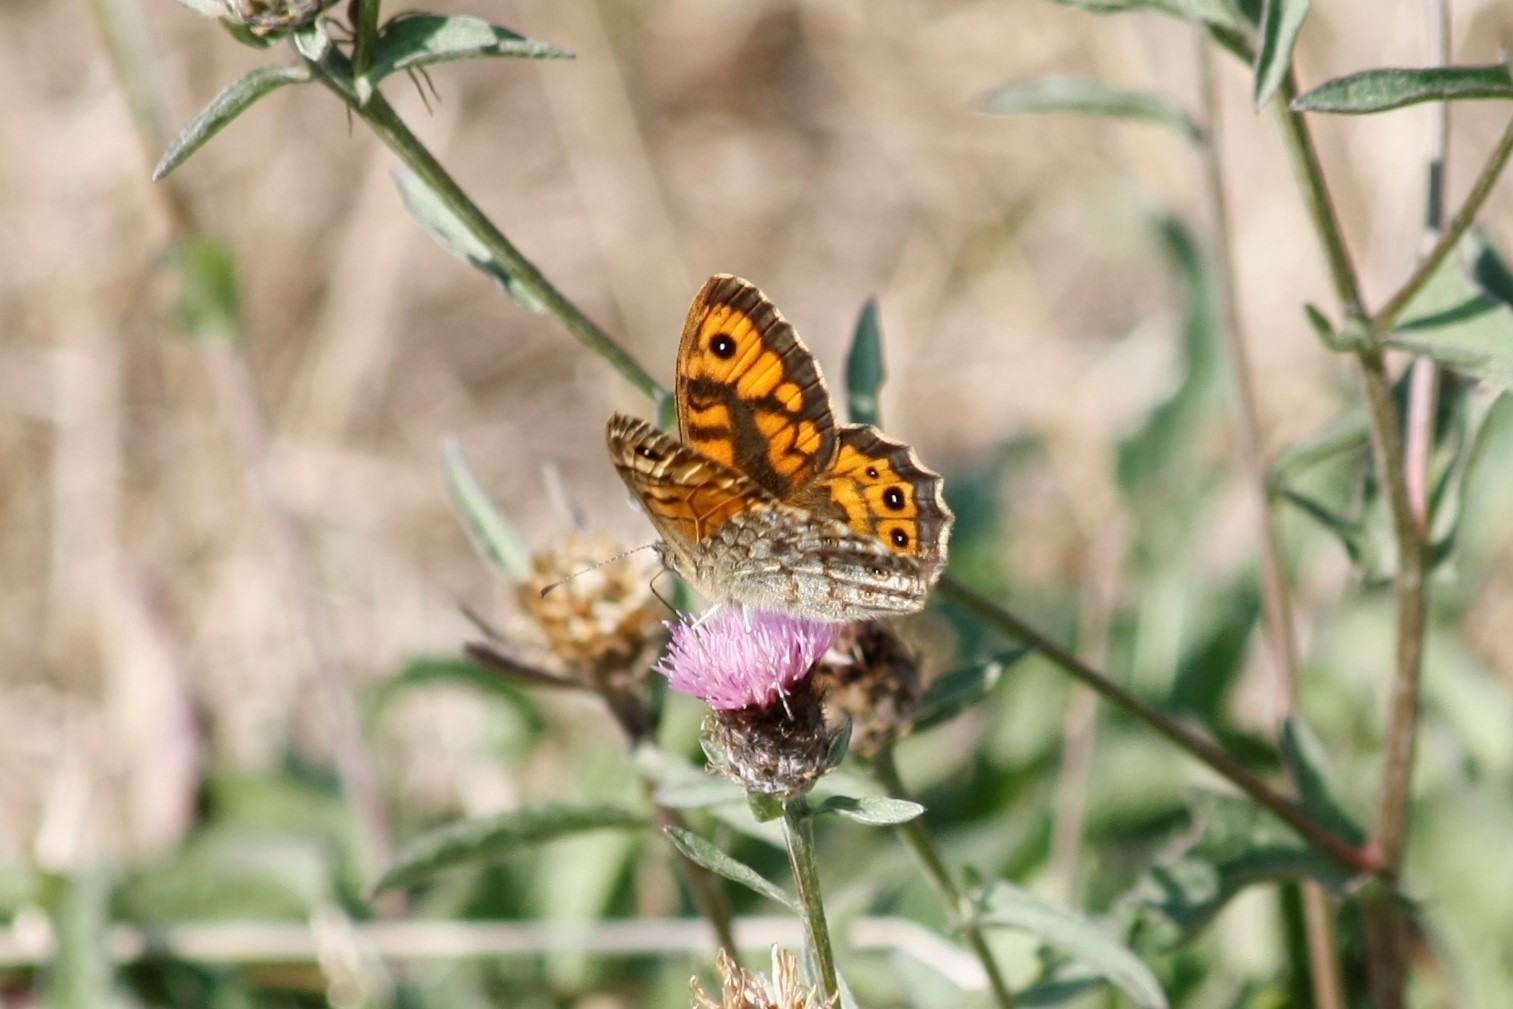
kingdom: Animalia
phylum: Arthropoda
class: Insecta
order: Lepidoptera
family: Nymphalidae
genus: Pararge
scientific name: Pararge Lasiommata megera
